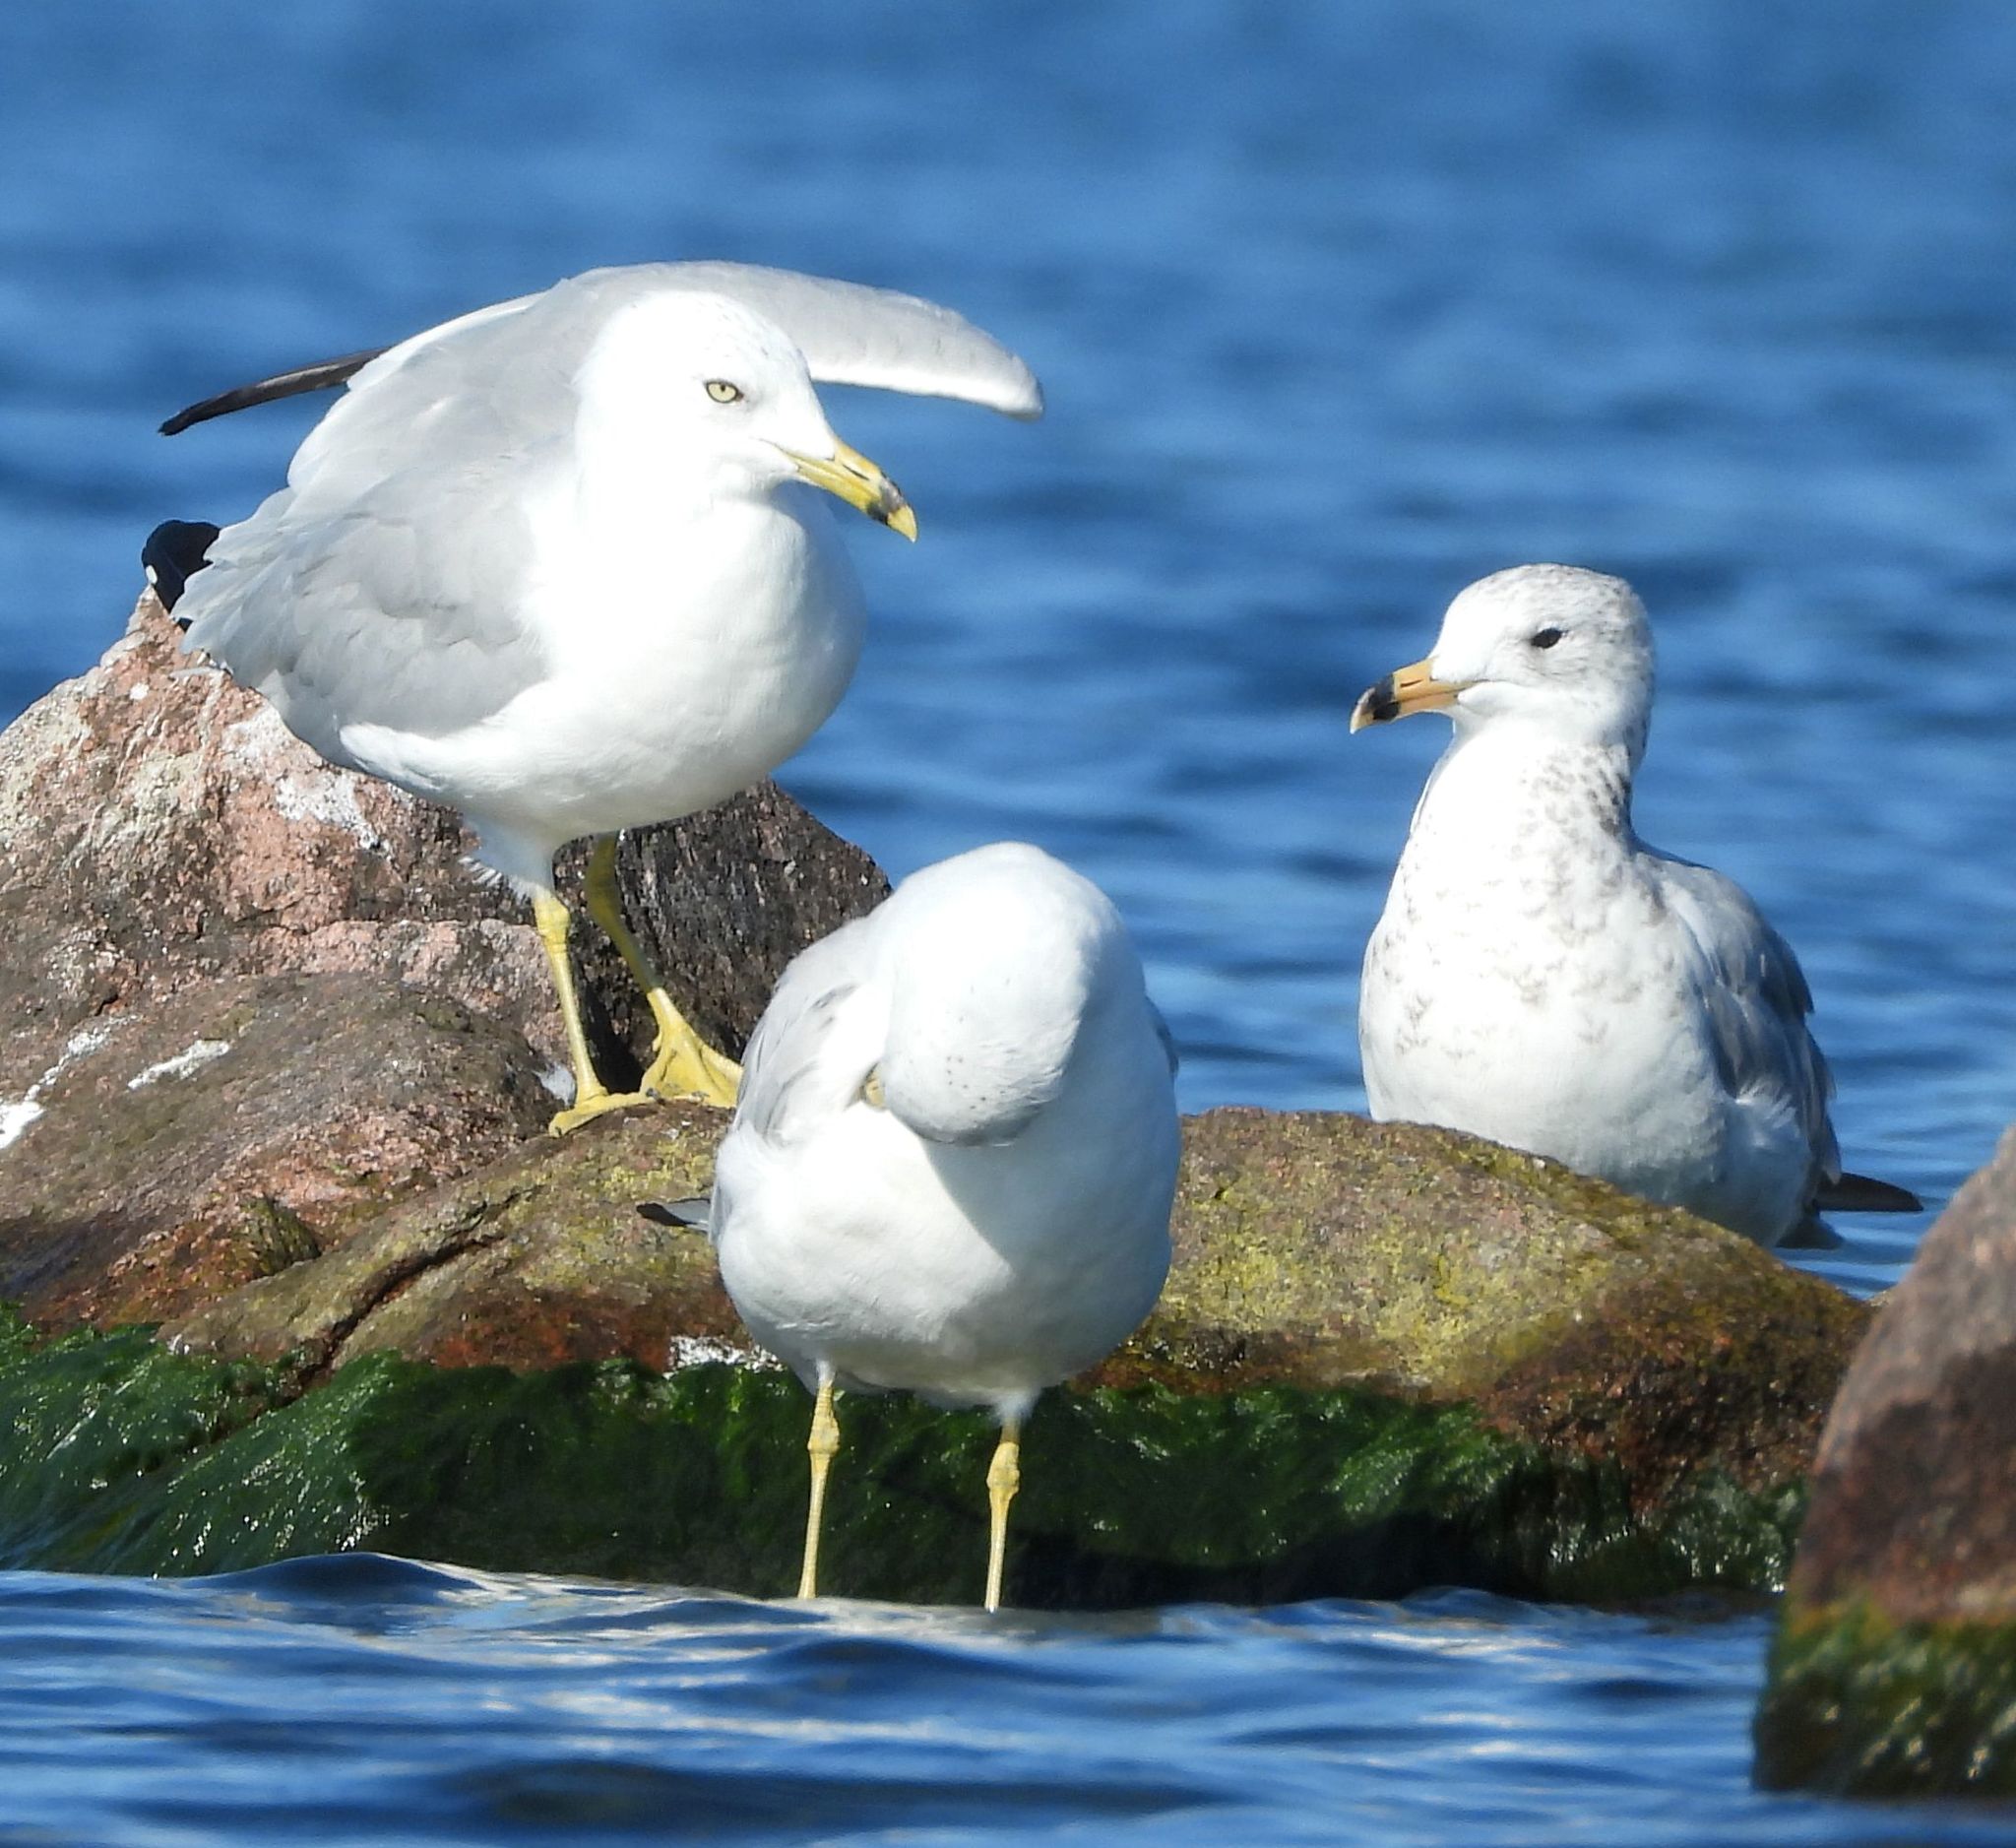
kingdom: Animalia
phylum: Chordata
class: Aves
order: Charadriiformes
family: Laridae
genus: Larus
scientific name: Larus delawarensis
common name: Ring-billed gull
